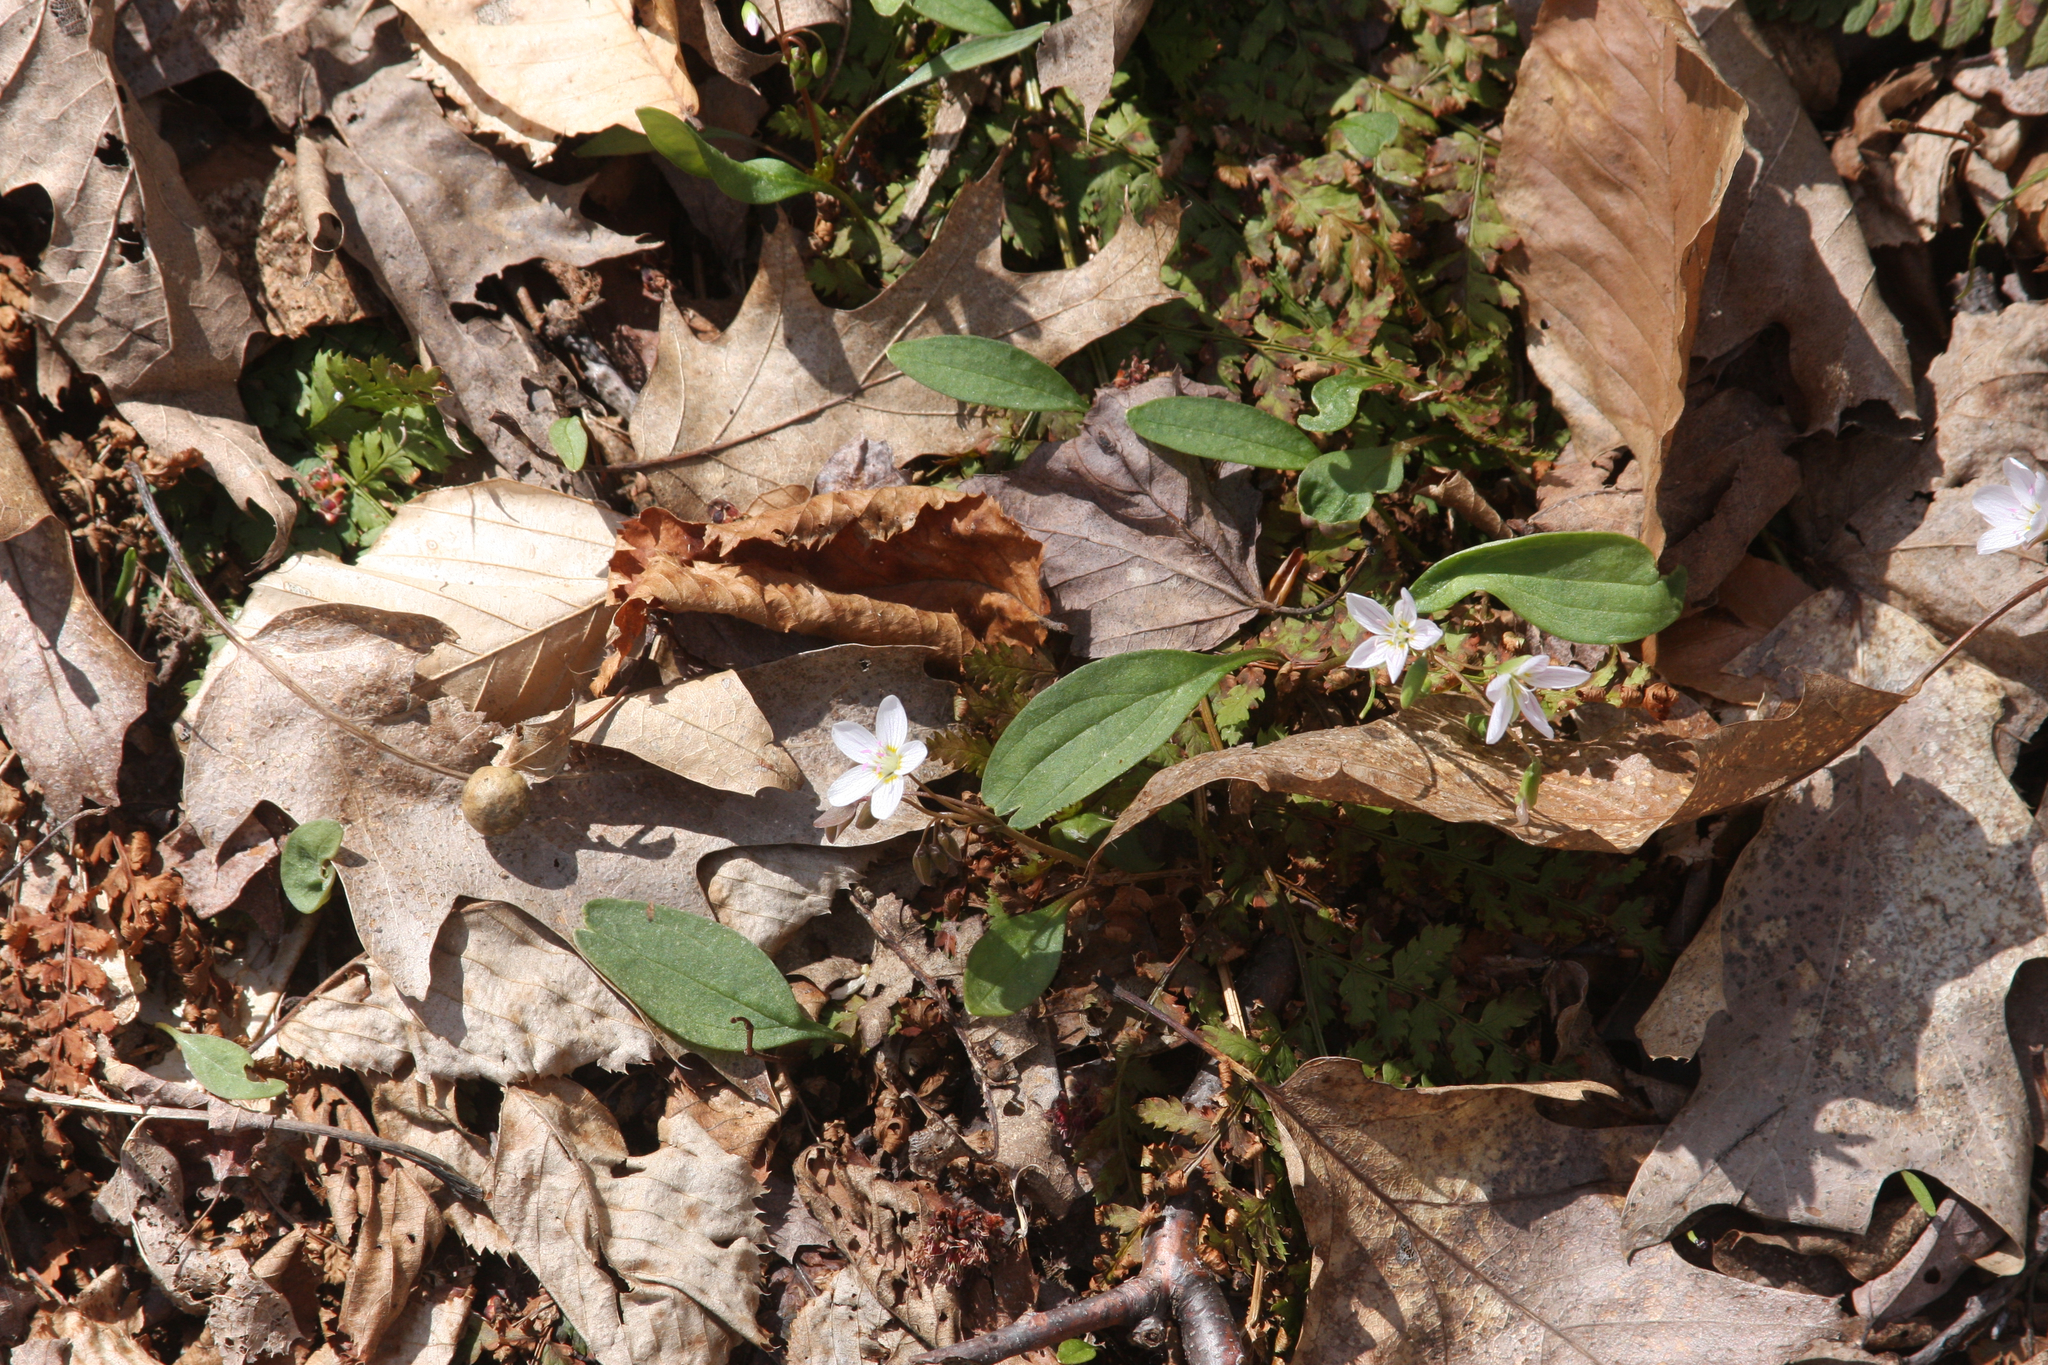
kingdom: Plantae
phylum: Tracheophyta
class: Magnoliopsida
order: Caryophyllales
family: Montiaceae
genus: Claytonia
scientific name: Claytonia caroliniana
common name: Carolina spring beauty
